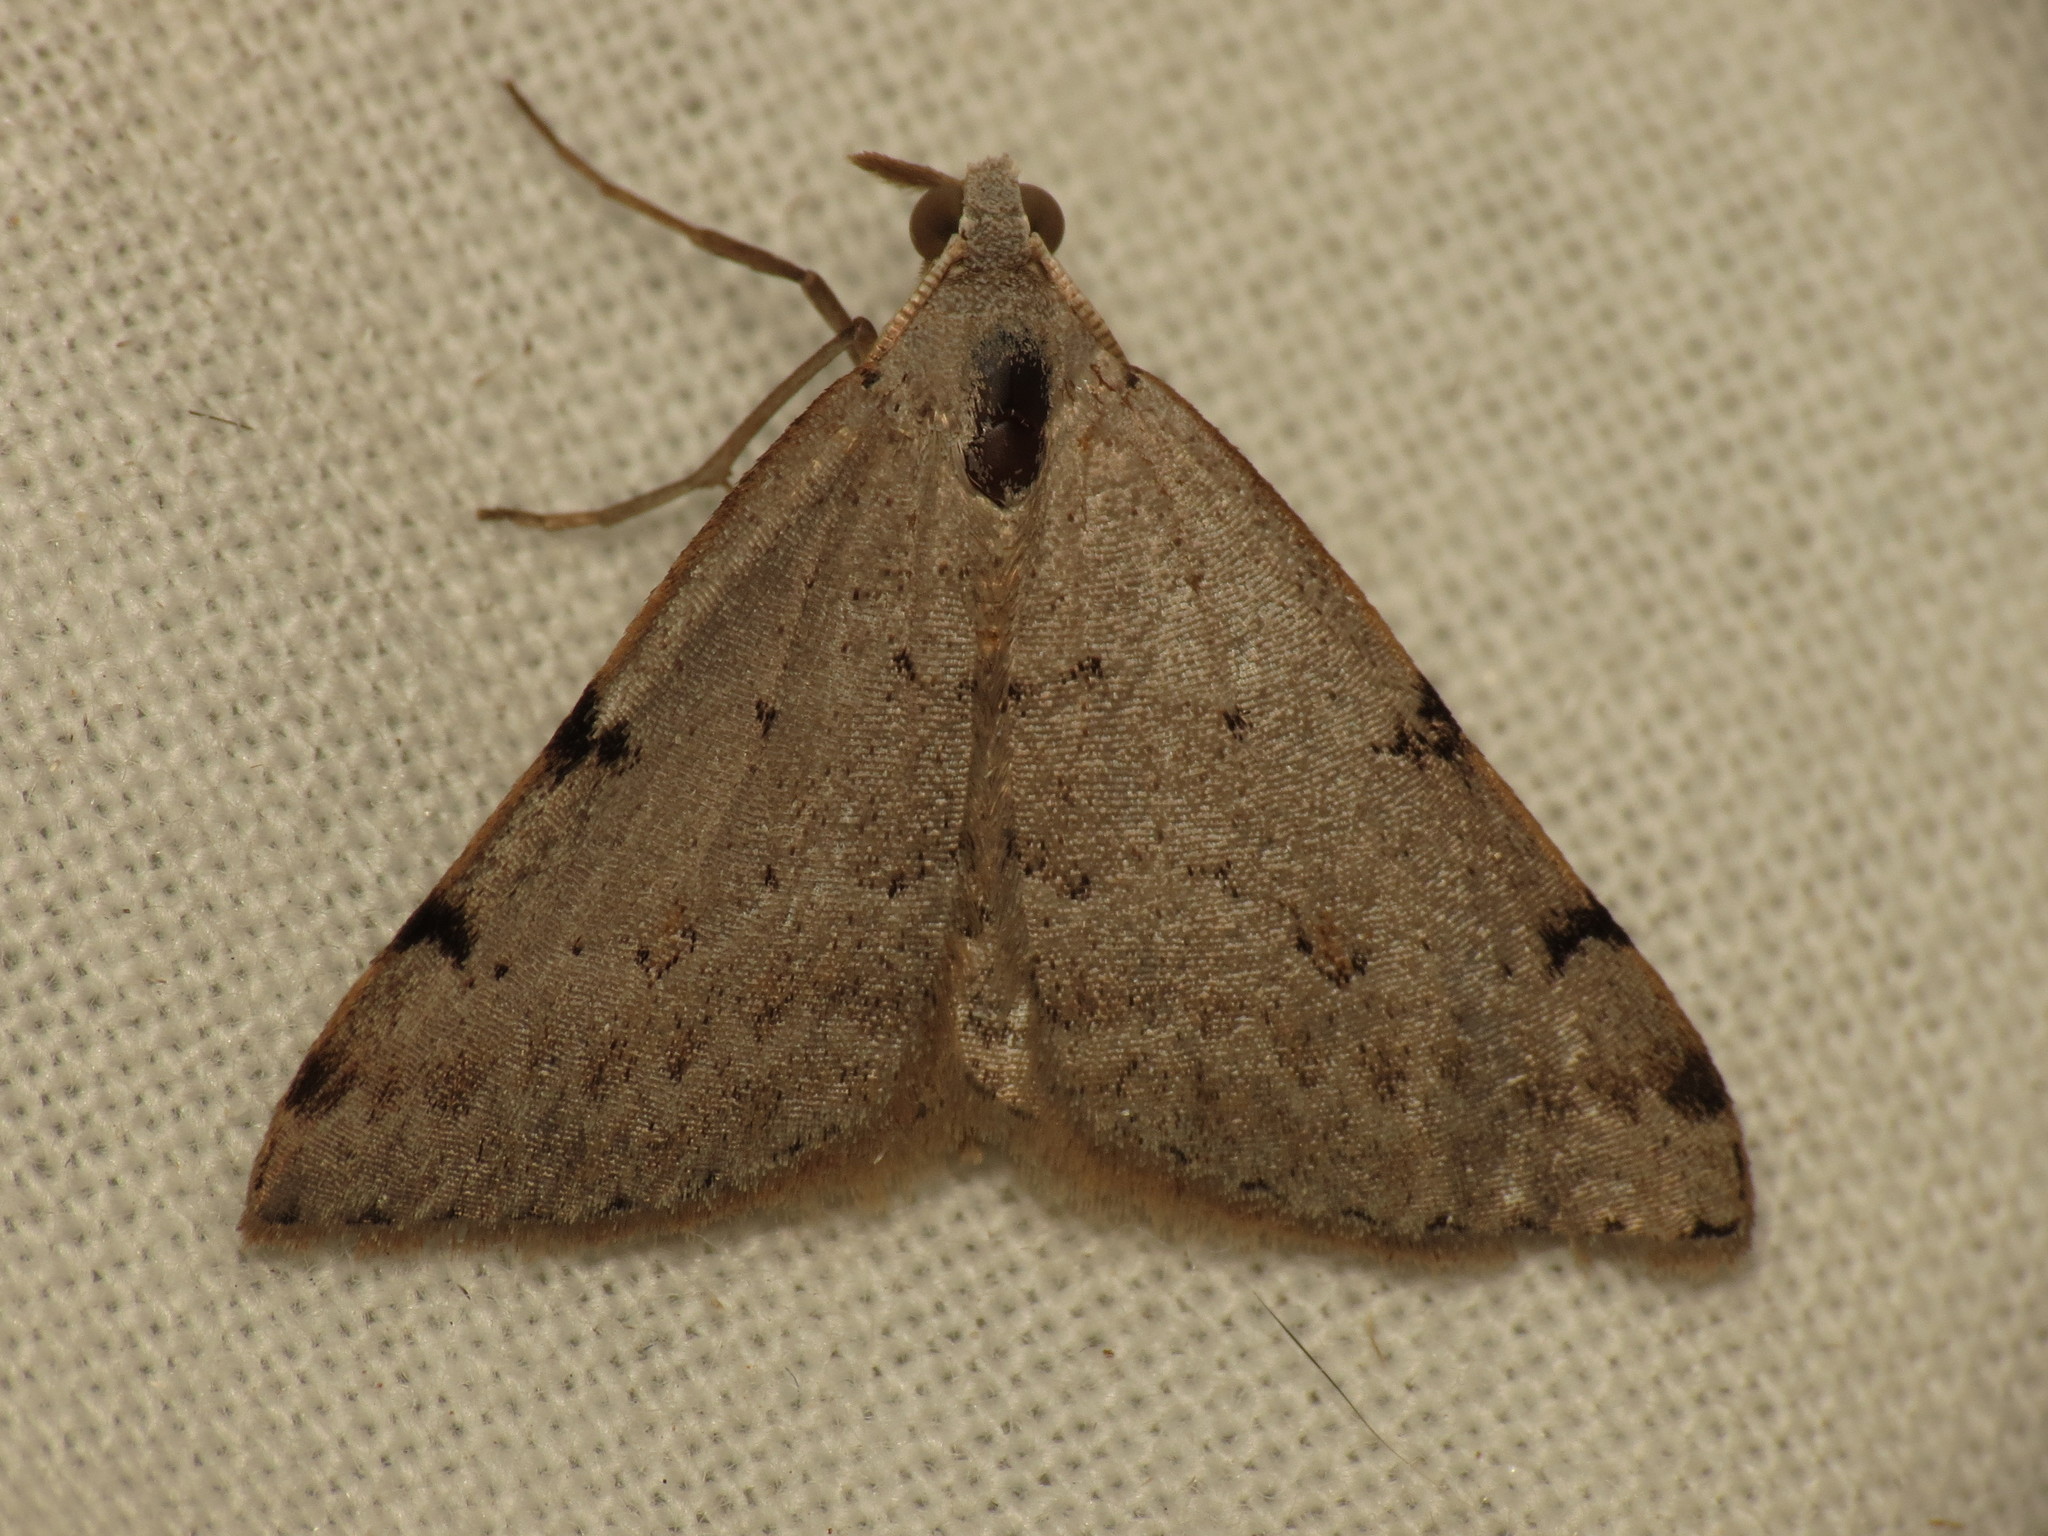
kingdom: Animalia
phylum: Arthropoda
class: Insecta
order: Lepidoptera
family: Geometridae
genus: Dichromodes
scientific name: Dichromodes estigmaria
